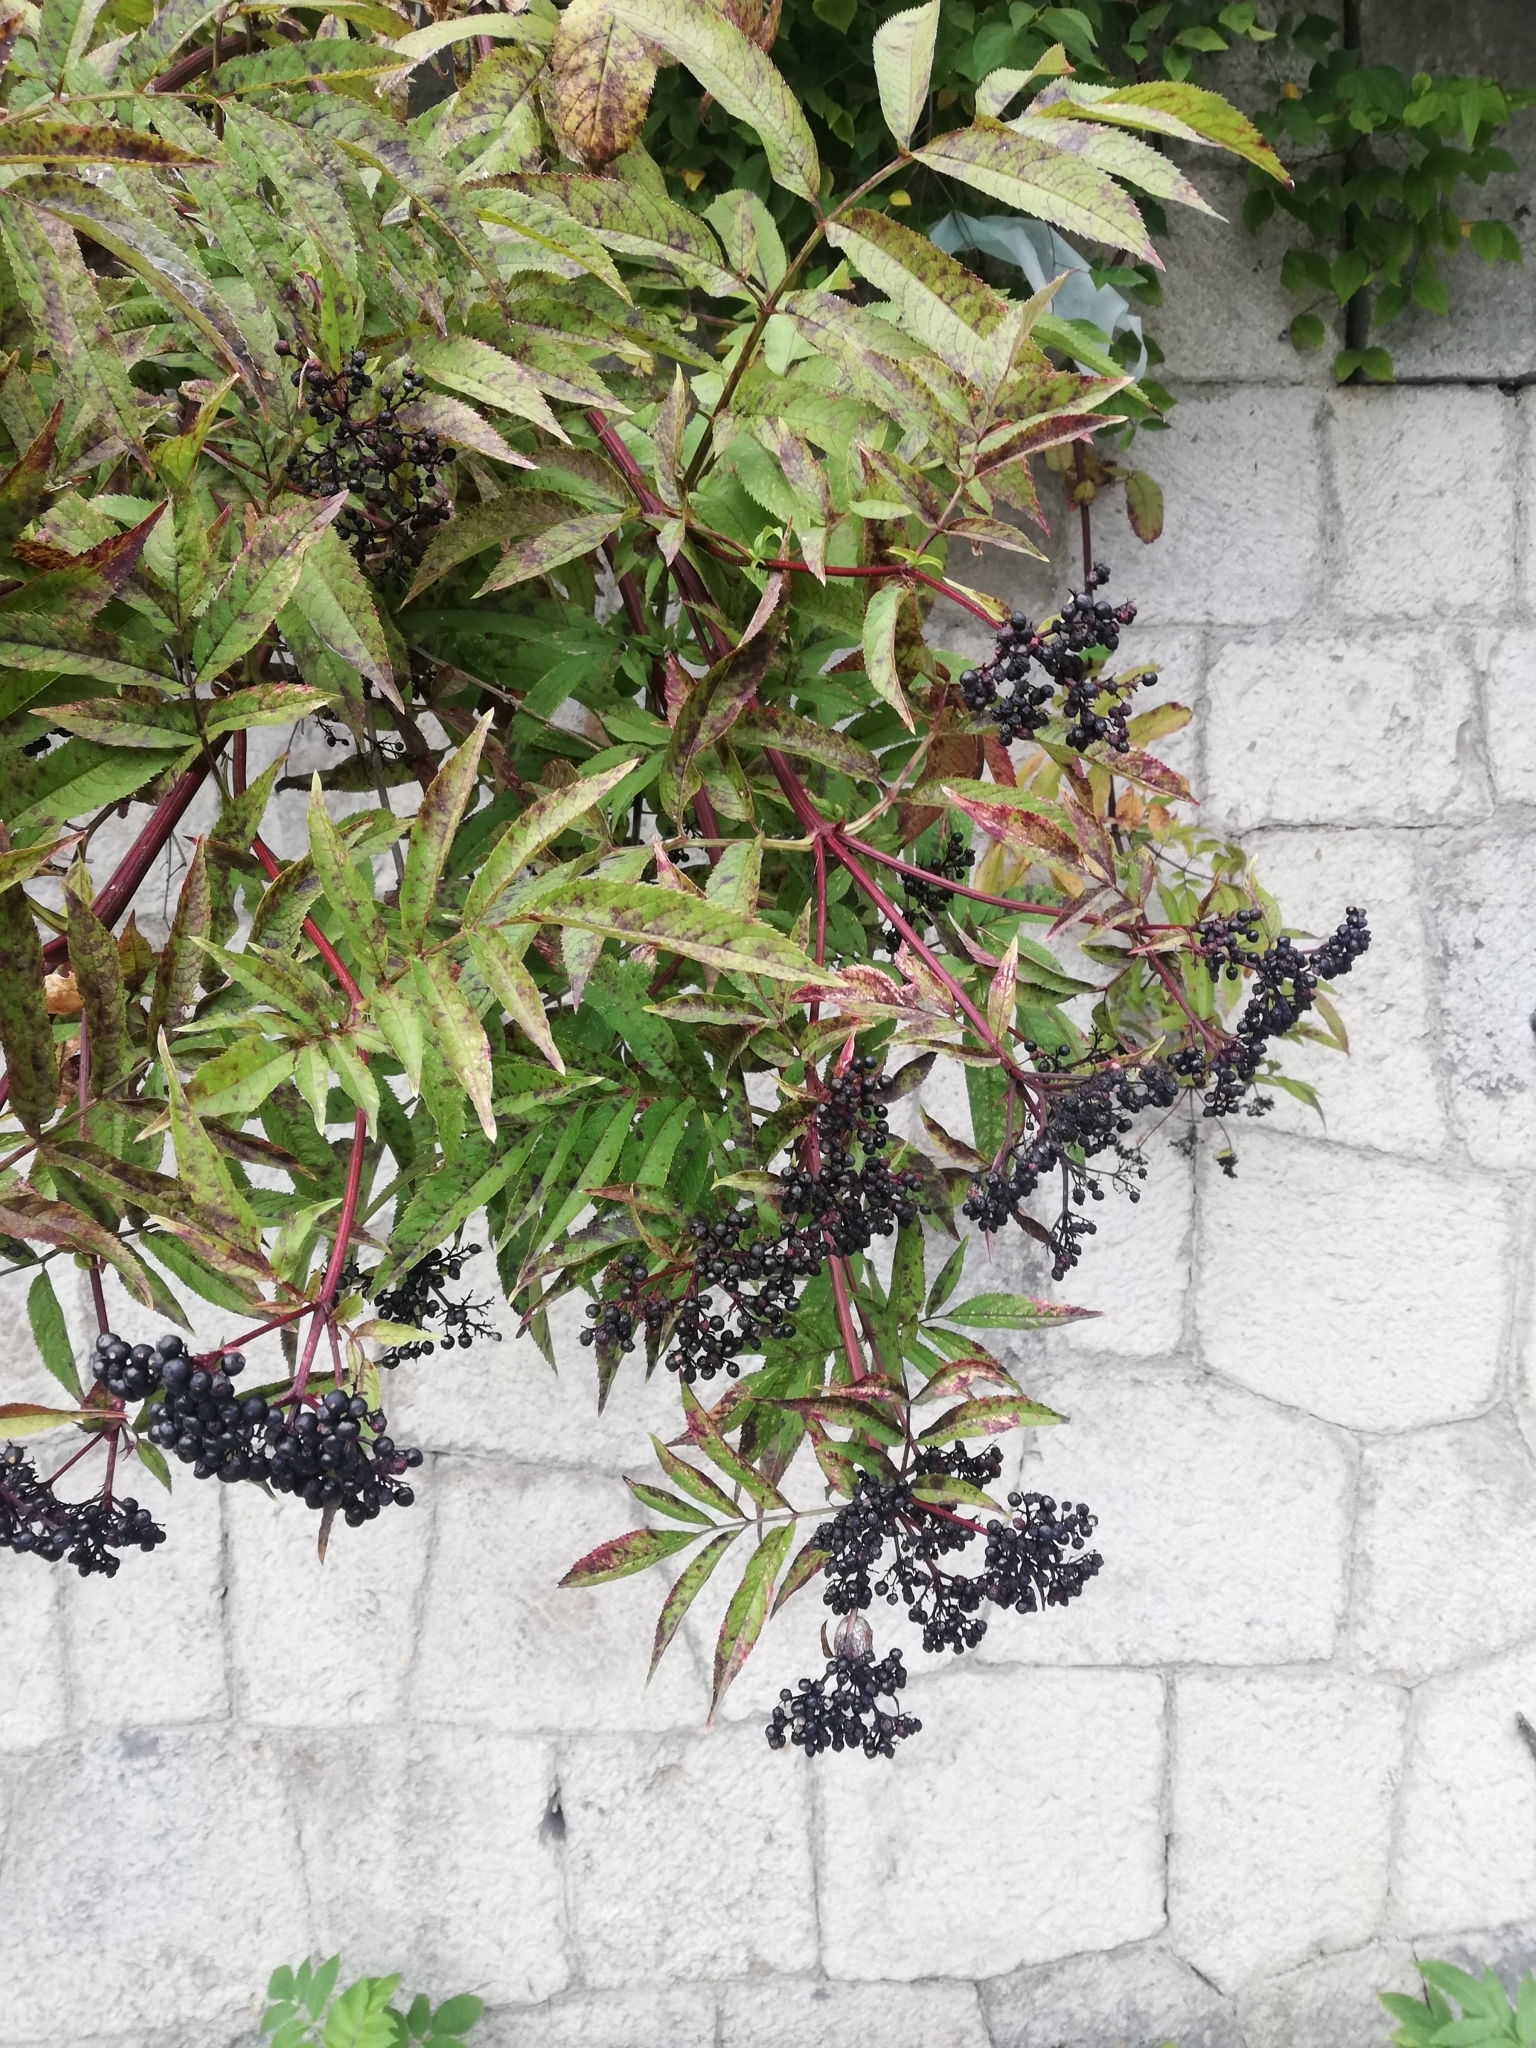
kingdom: Plantae
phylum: Tracheophyta
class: Magnoliopsida
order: Dipsacales
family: Viburnaceae
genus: Sambucus
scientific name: Sambucus ebulus
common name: Dwarf elder
